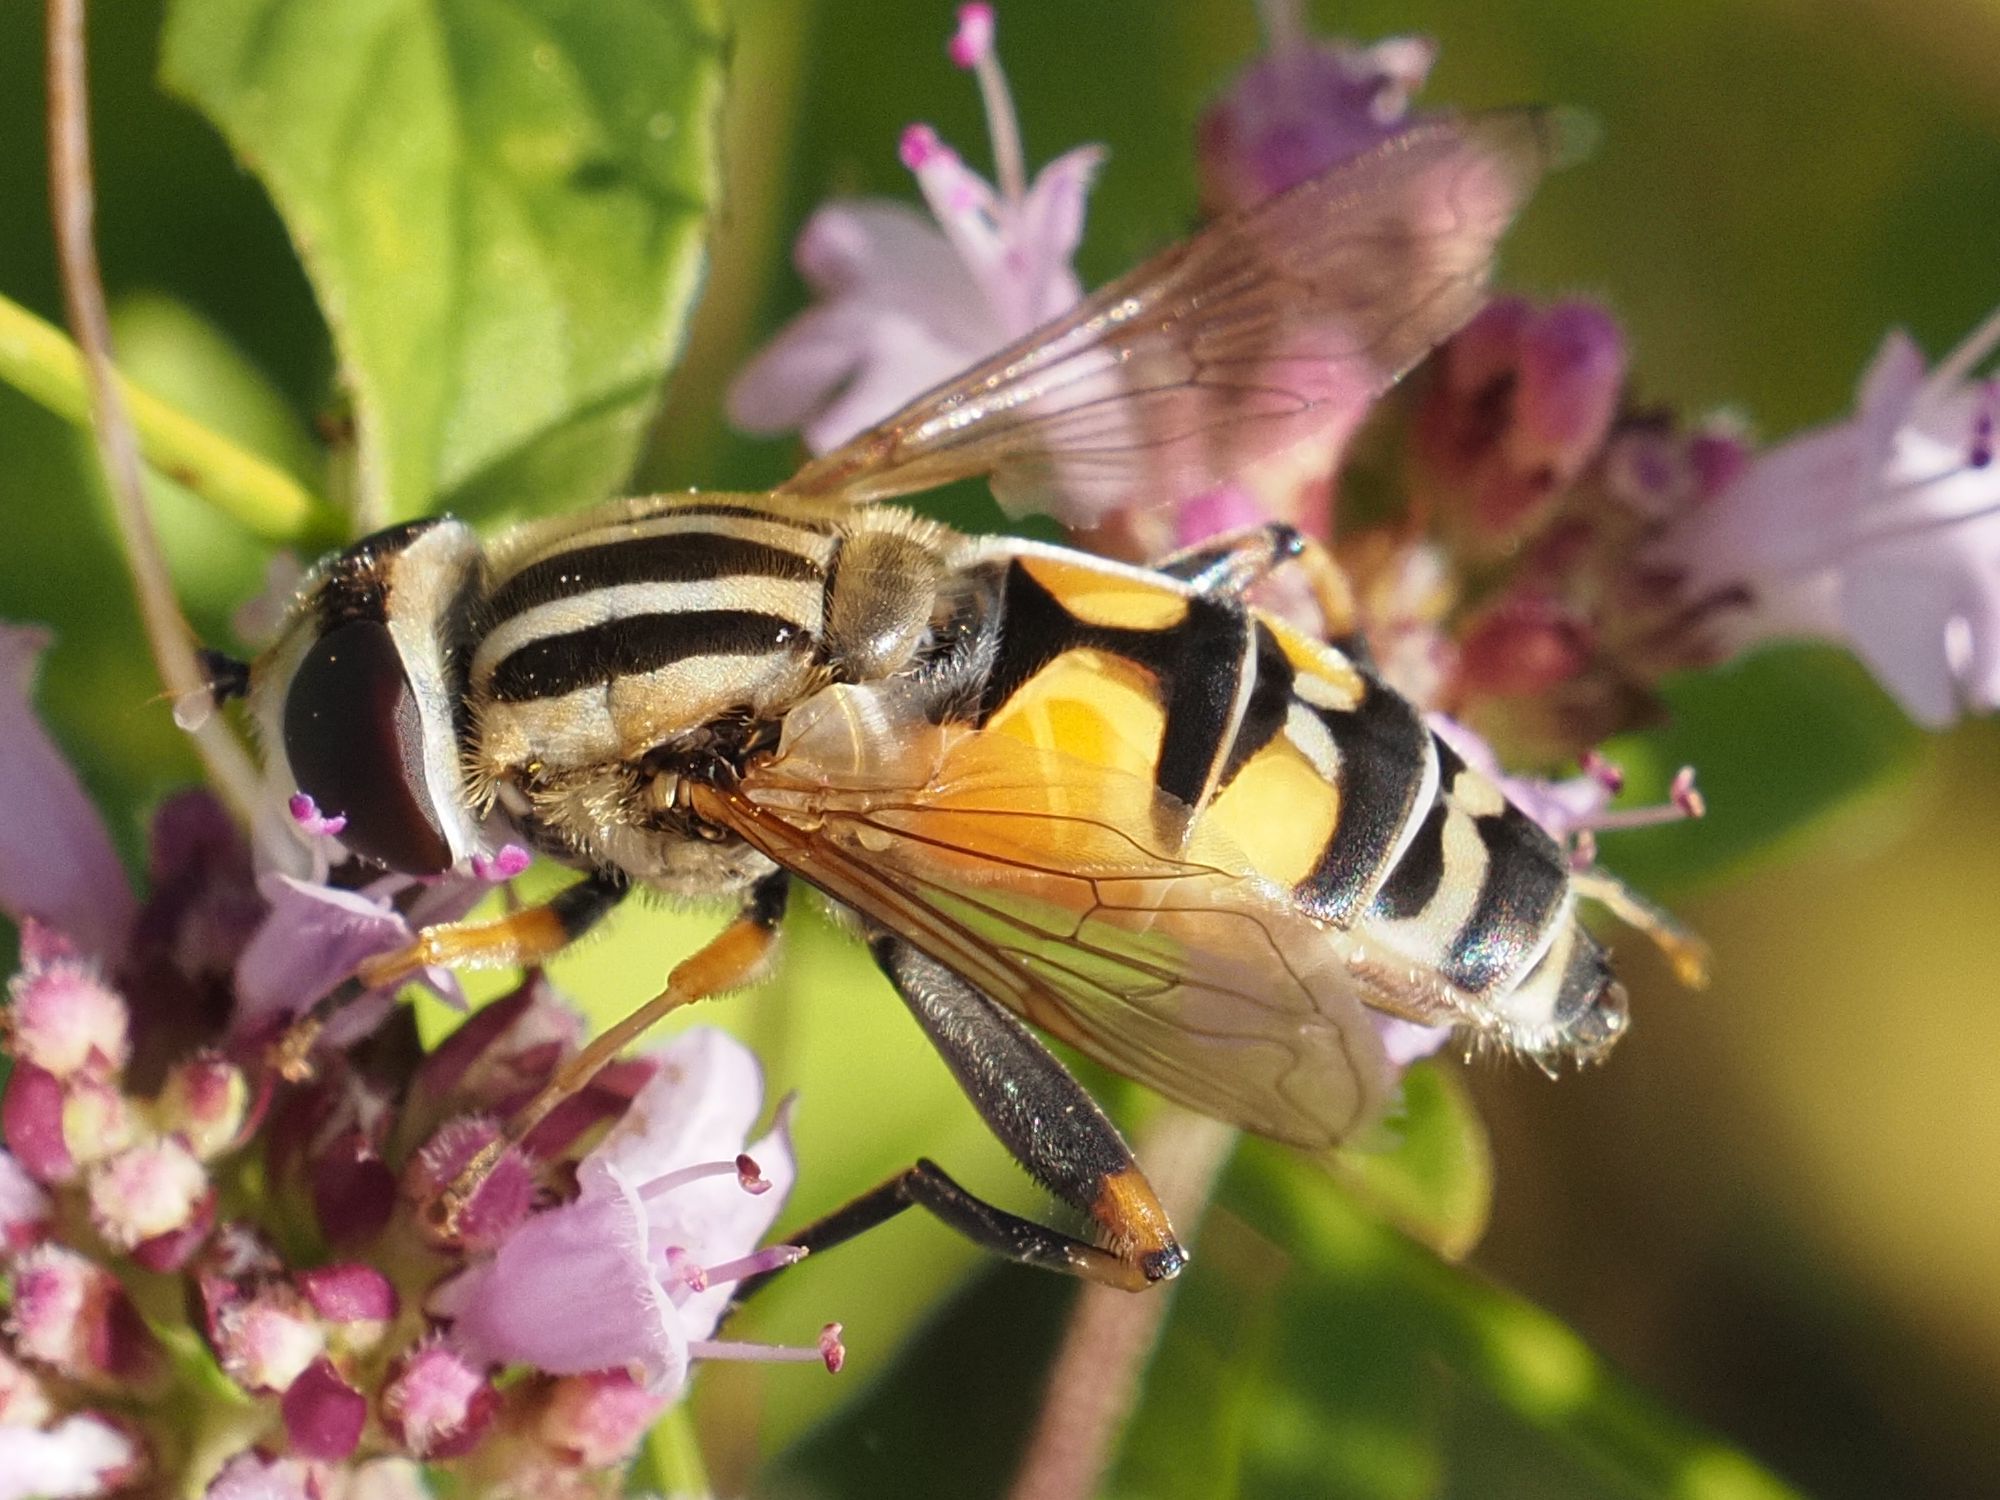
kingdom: Animalia
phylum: Arthropoda
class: Insecta
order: Diptera
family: Syrphidae
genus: Helophilus
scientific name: Helophilus trivittatus
